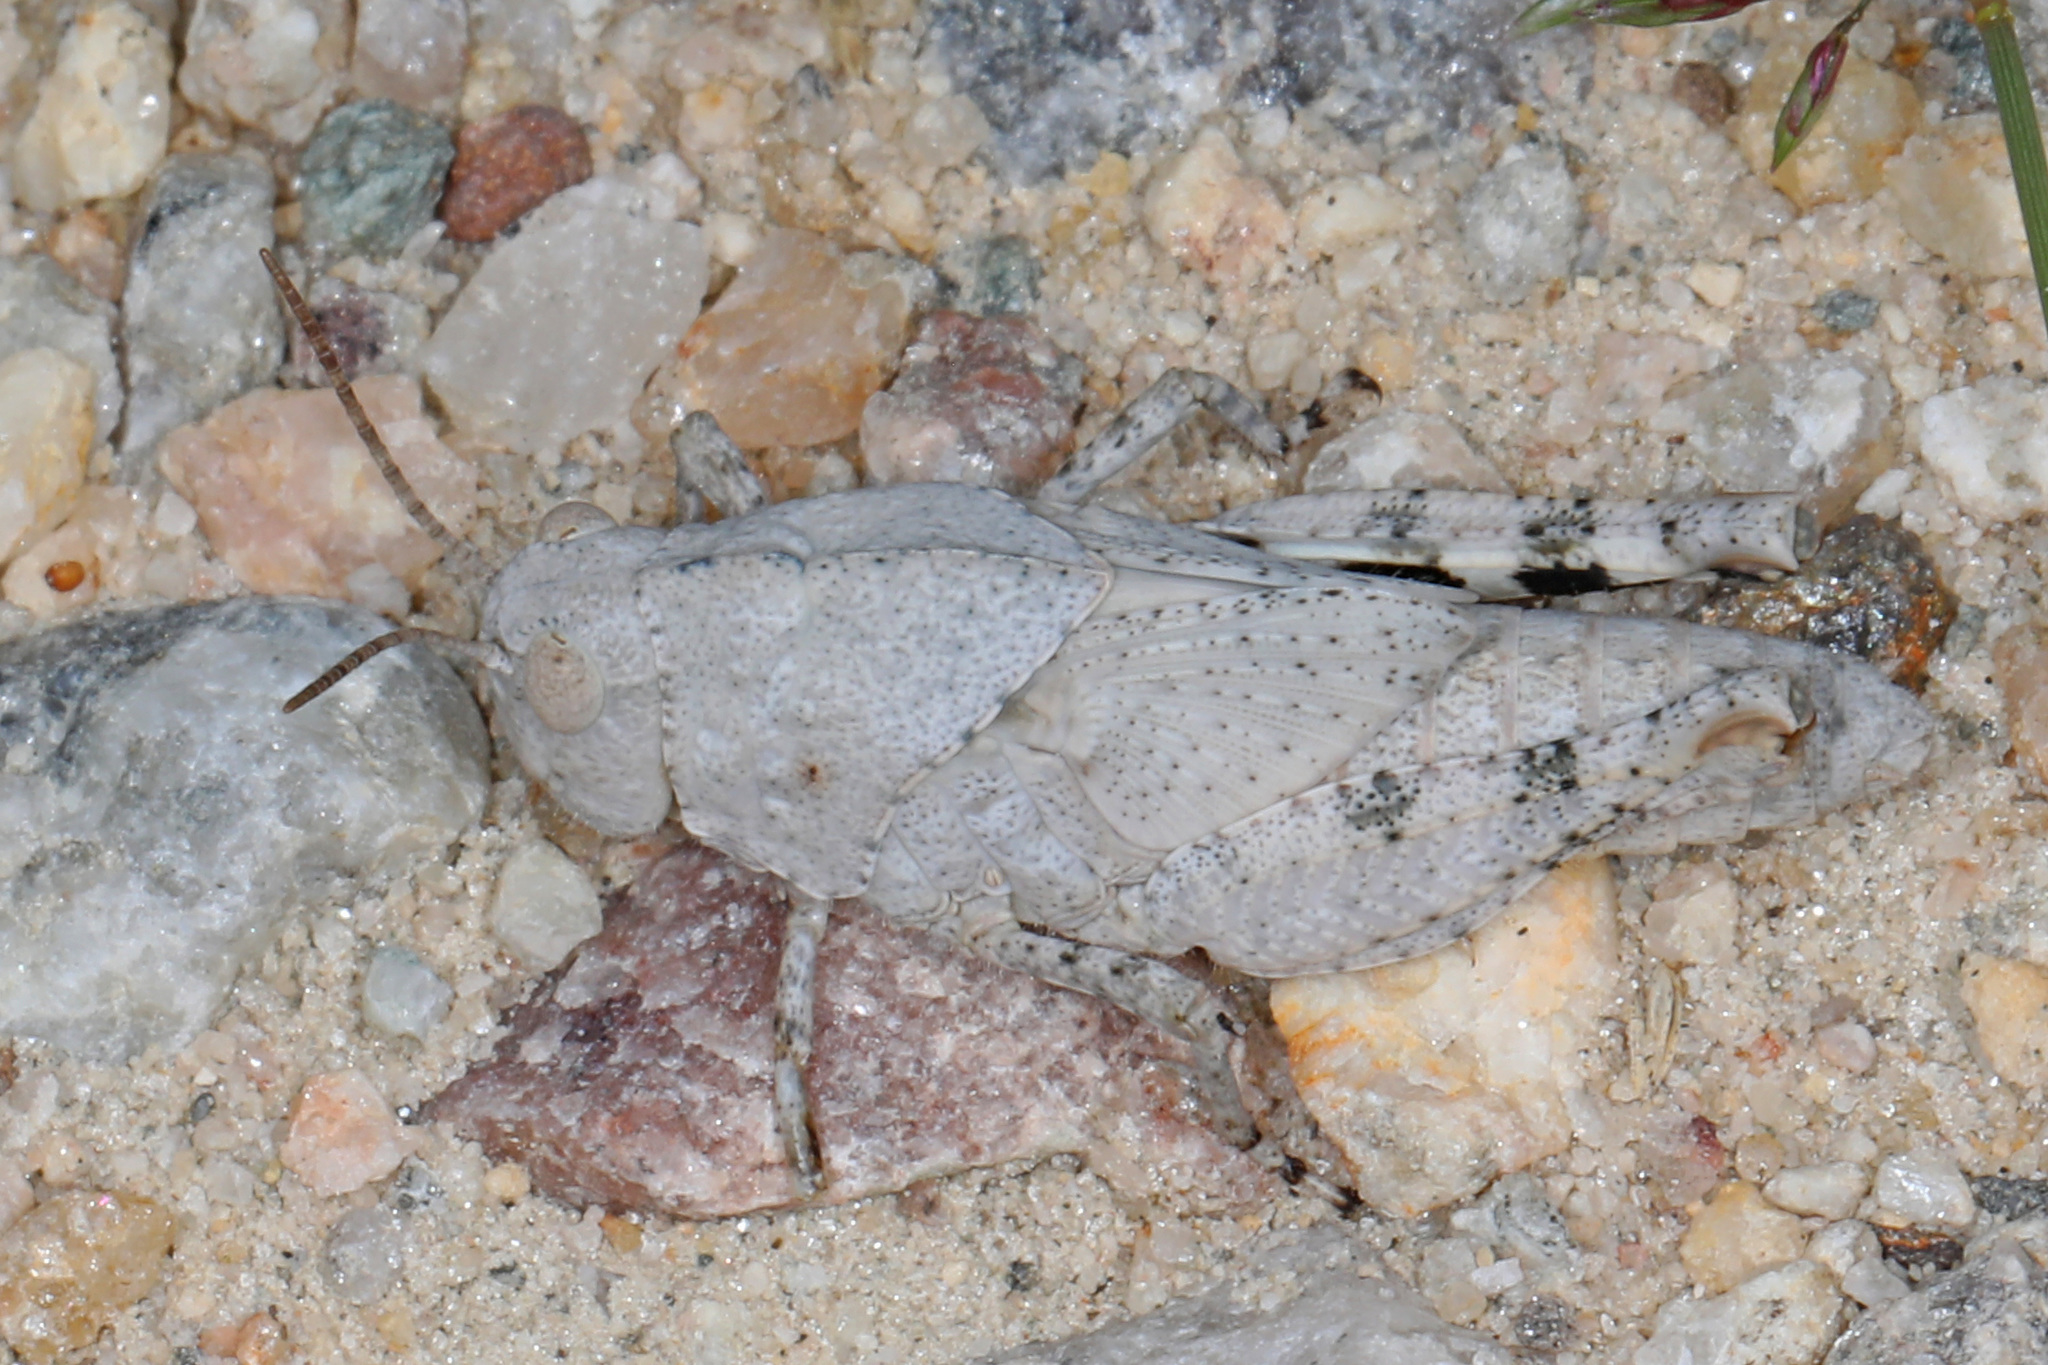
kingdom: Animalia
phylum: Arthropoda
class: Insecta
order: Orthoptera
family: Acrididae
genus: Dissosteira
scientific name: Dissosteira carolina
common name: Carolina grasshopper
